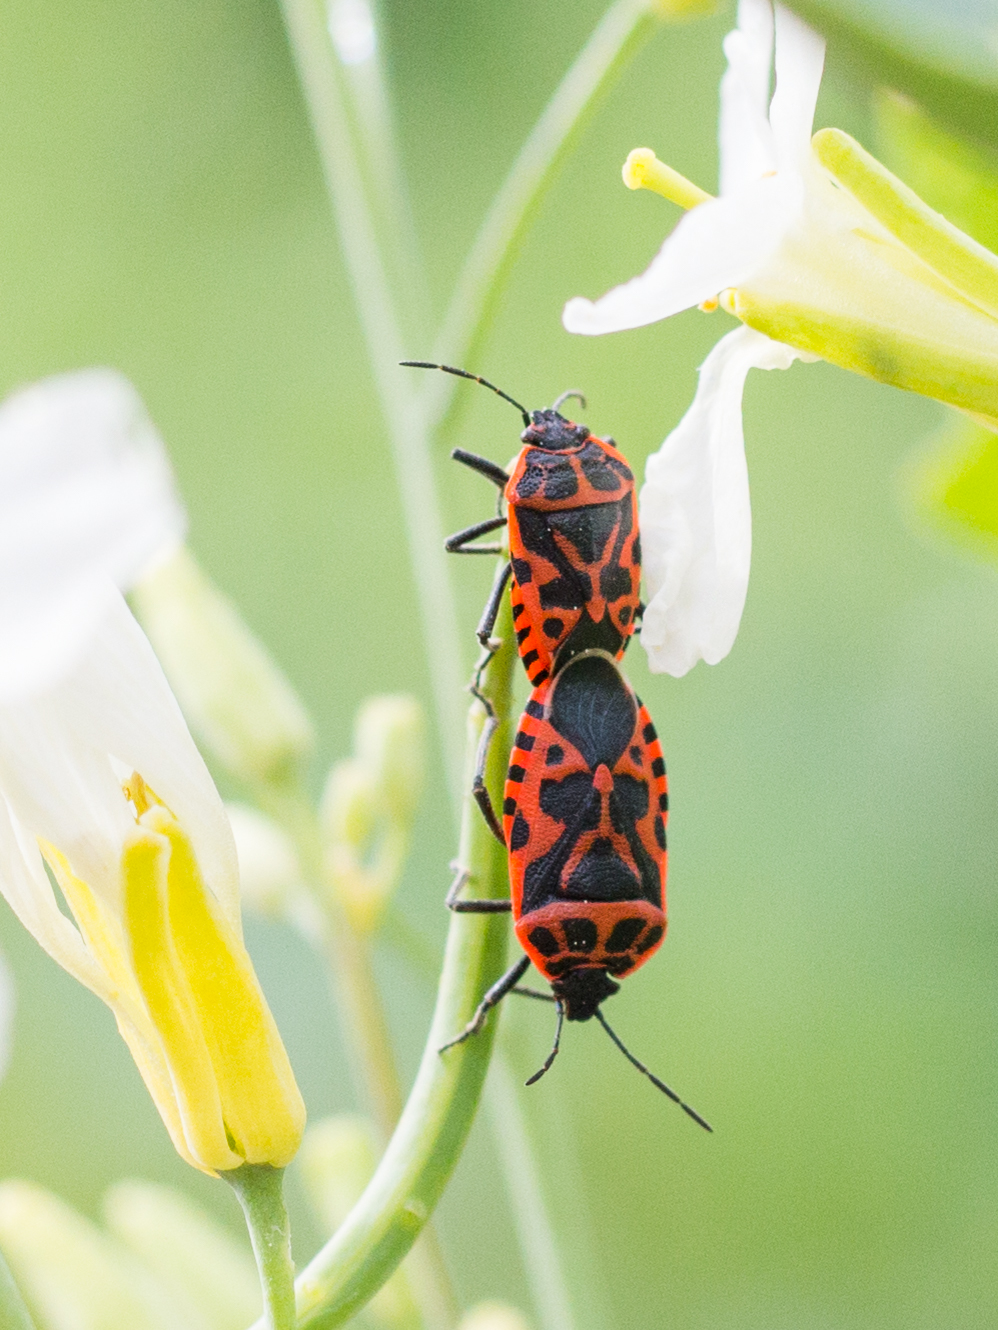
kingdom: Animalia
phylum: Arthropoda
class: Insecta
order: Hemiptera
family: Pentatomidae
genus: Eurydema
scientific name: Eurydema ventralis
